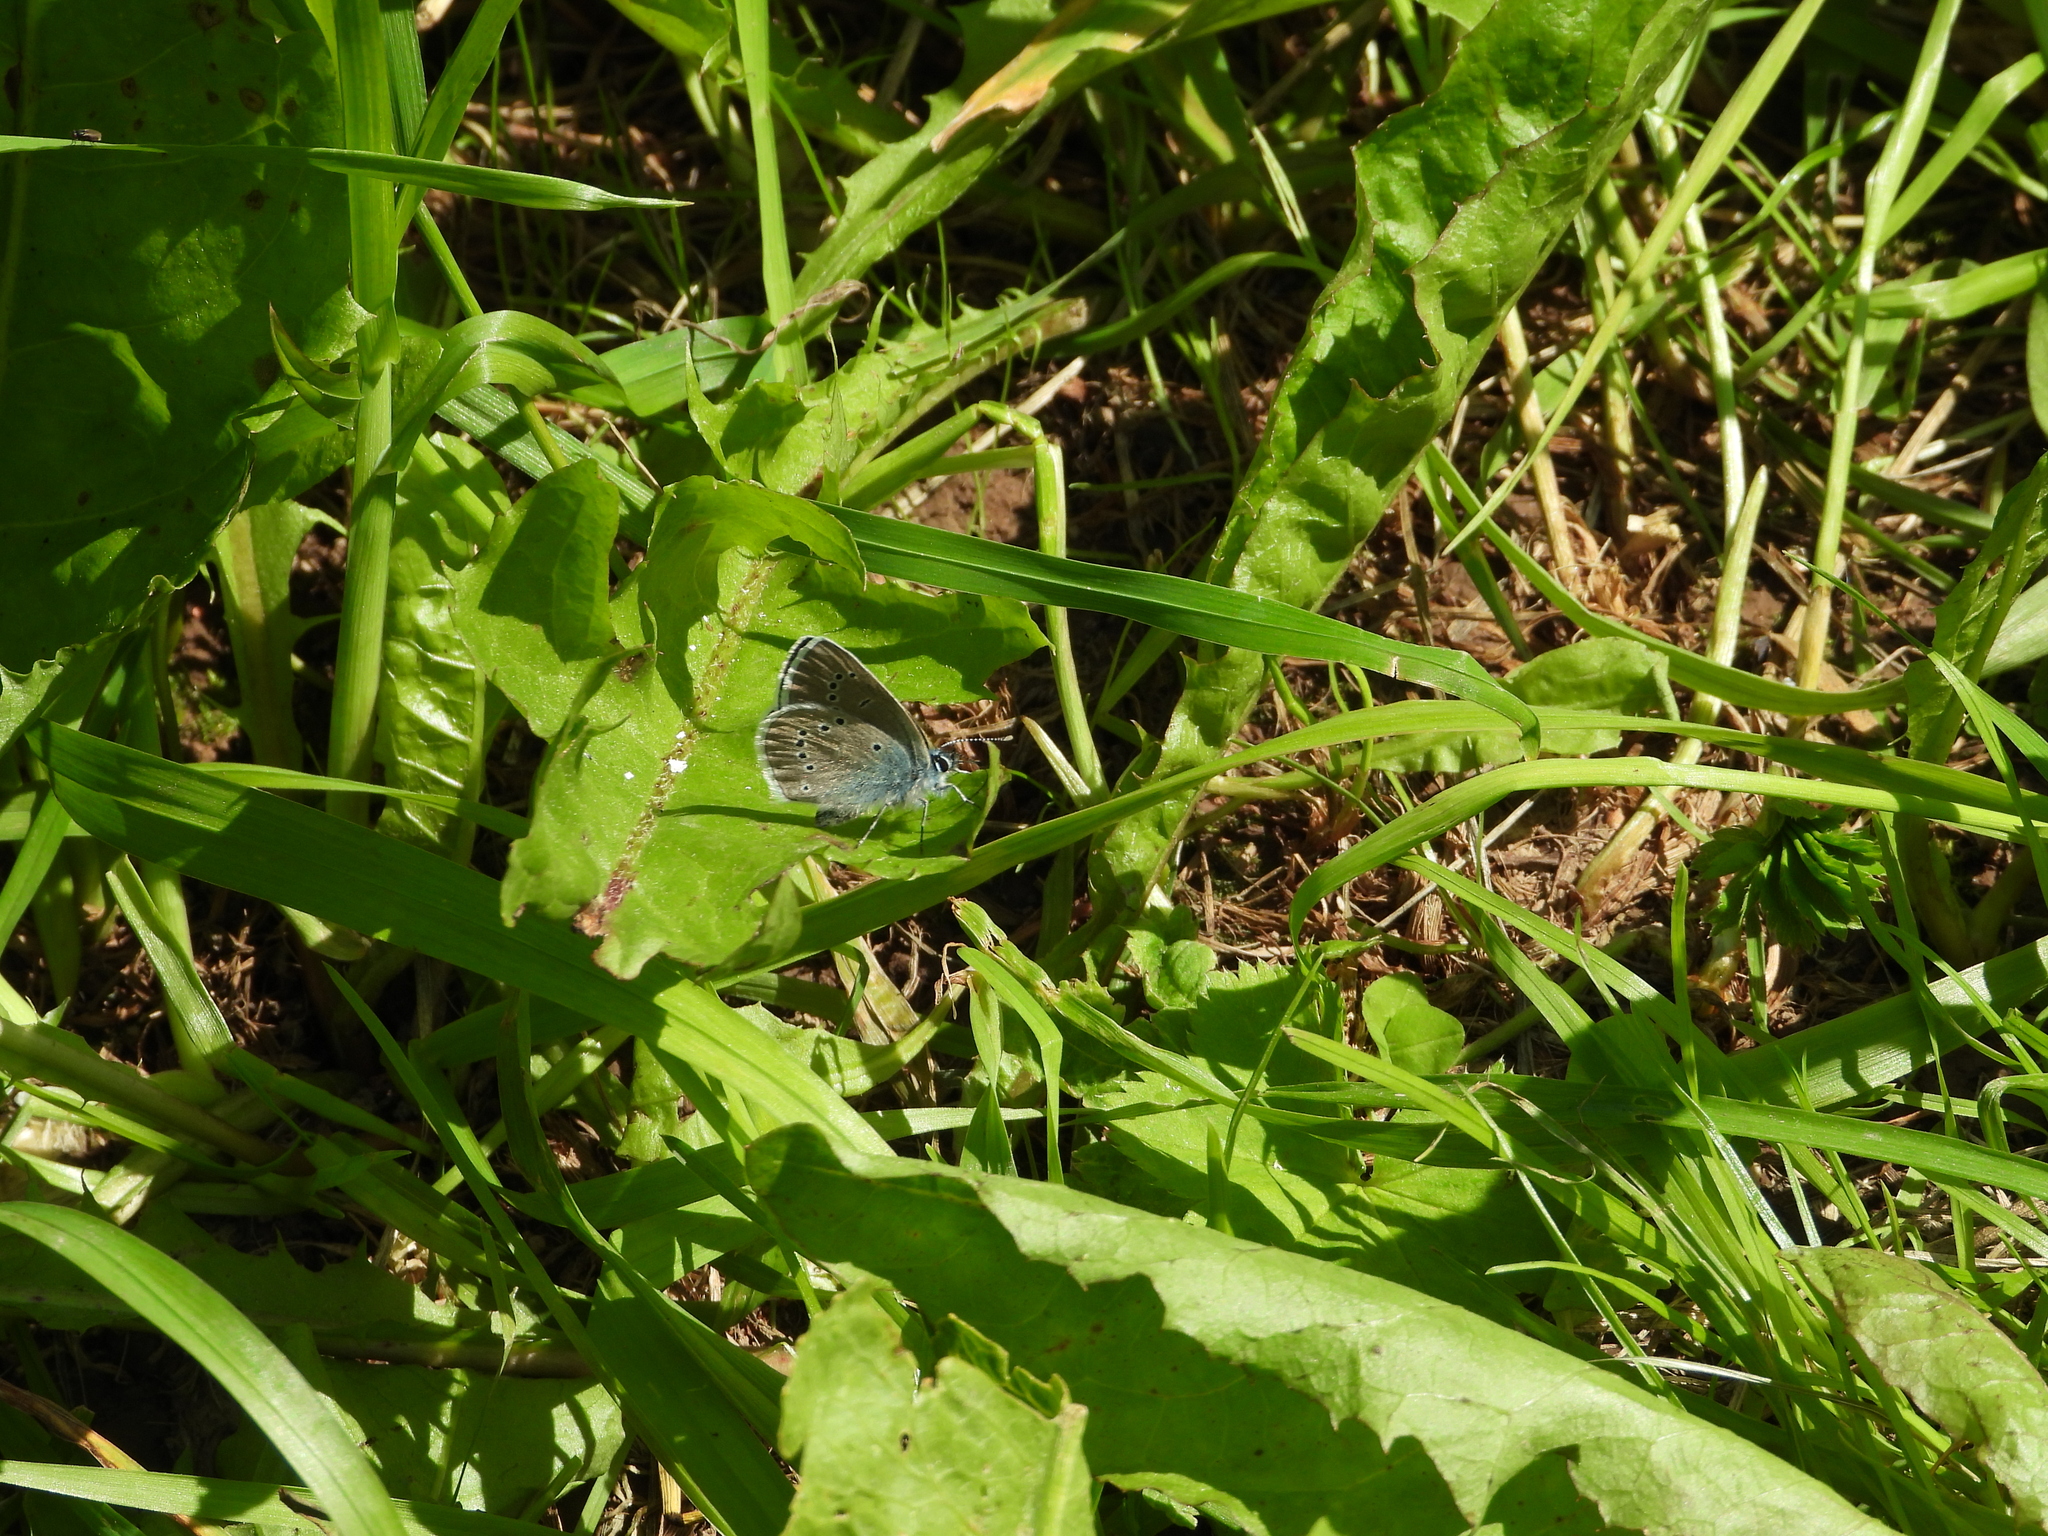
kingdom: Animalia
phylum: Arthropoda
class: Insecta
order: Lepidoptera
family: Lycaenidae
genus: Cyaniris
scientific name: Cyaniris semiargus
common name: Mazarine blue
